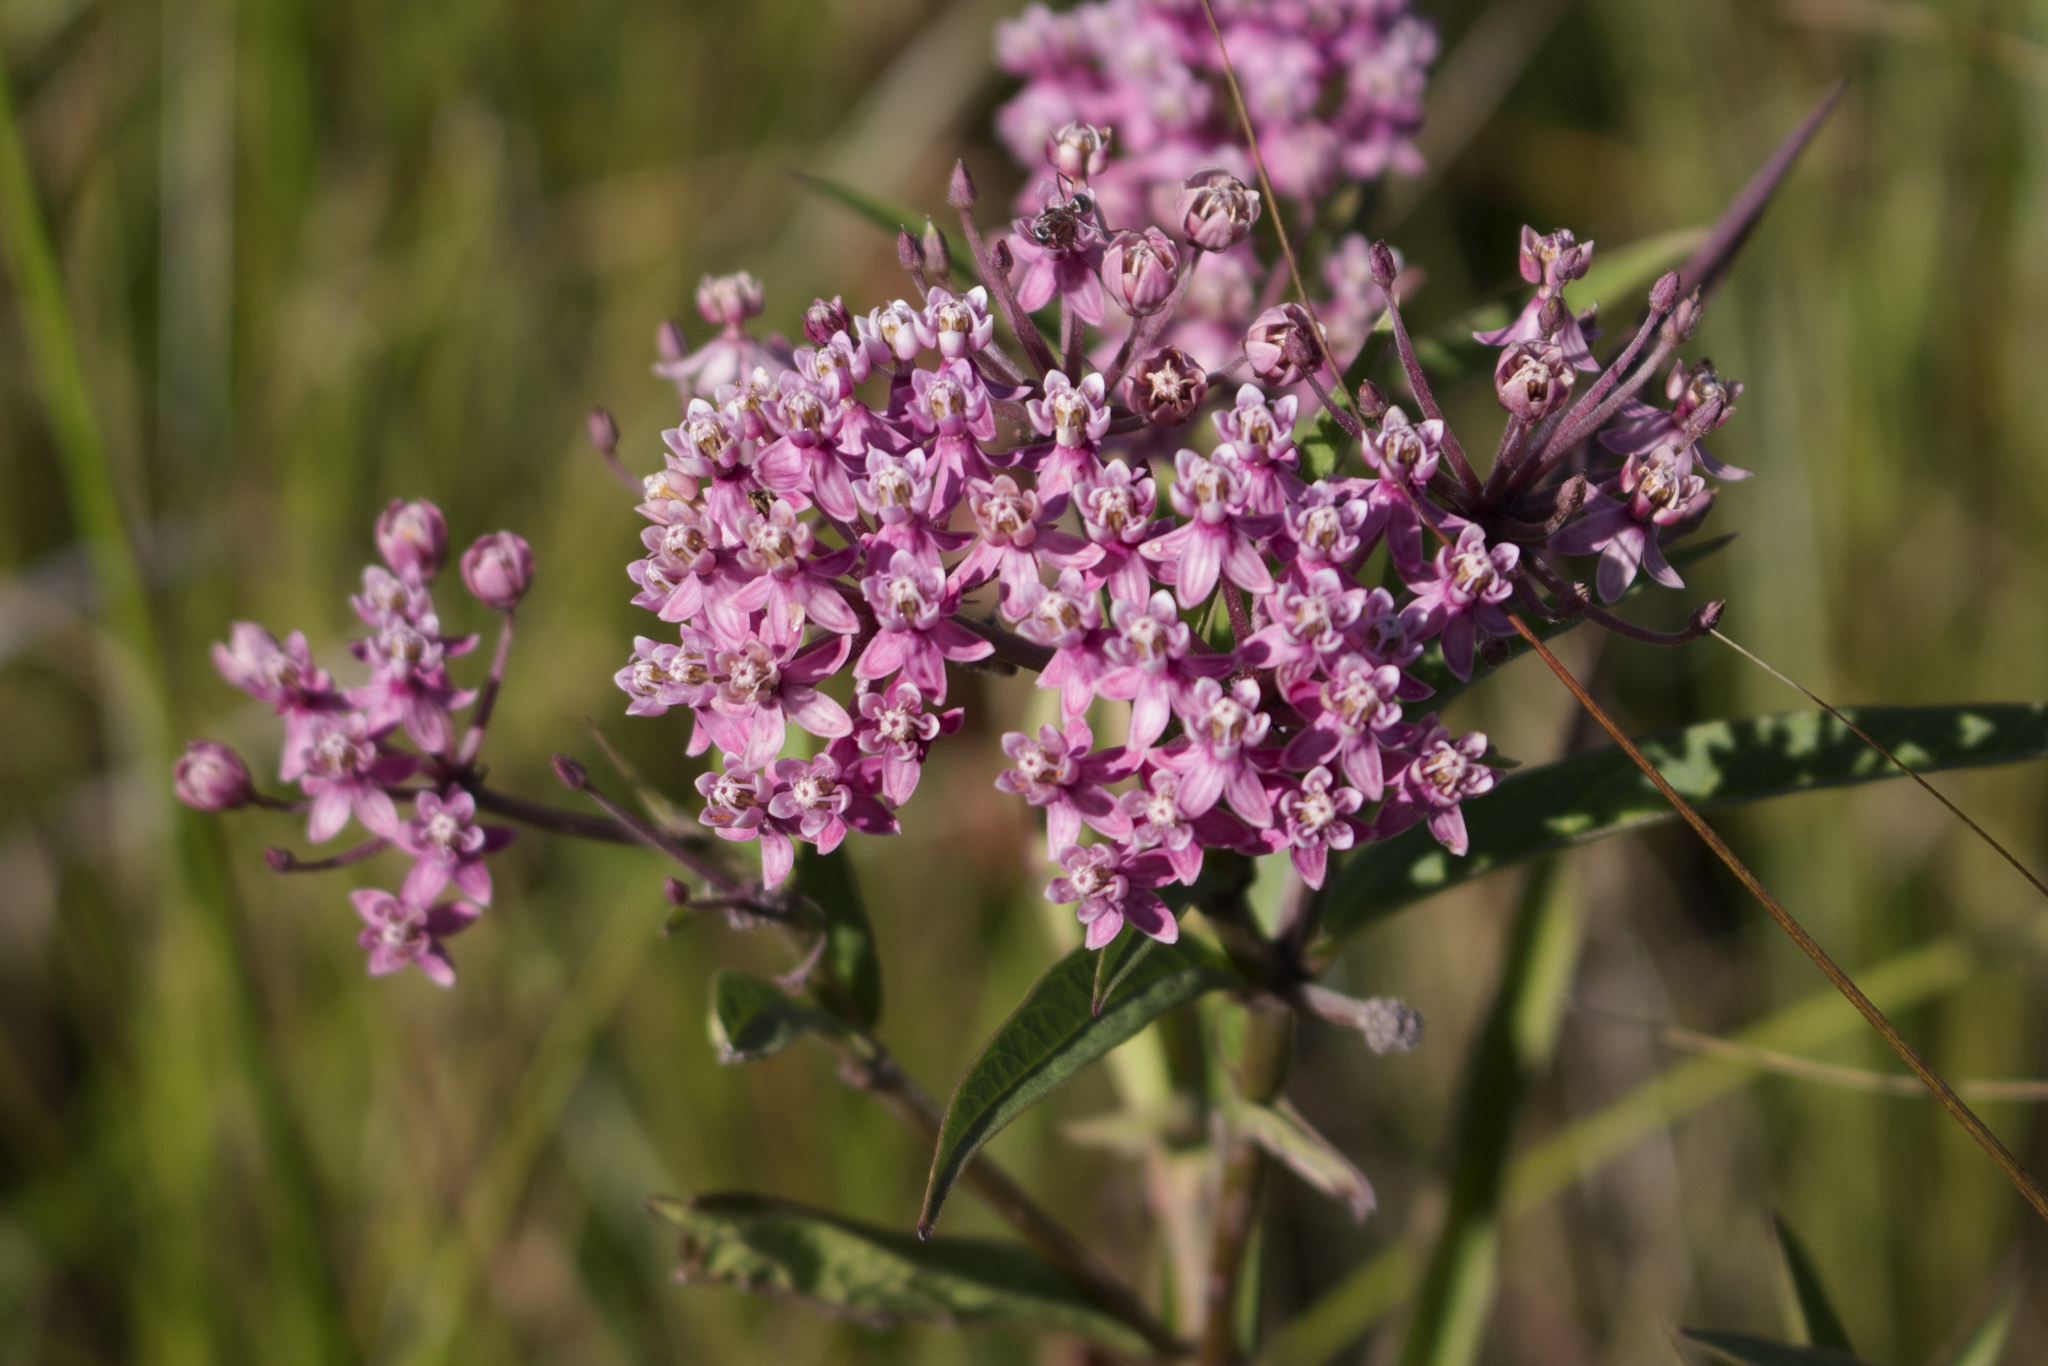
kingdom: Plantae
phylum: Tracheophyta
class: Magnoliopsida
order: Gentianales
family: Apocynaceae
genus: Asclepias
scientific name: Asclepias incarnata
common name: Swamp milkweed
